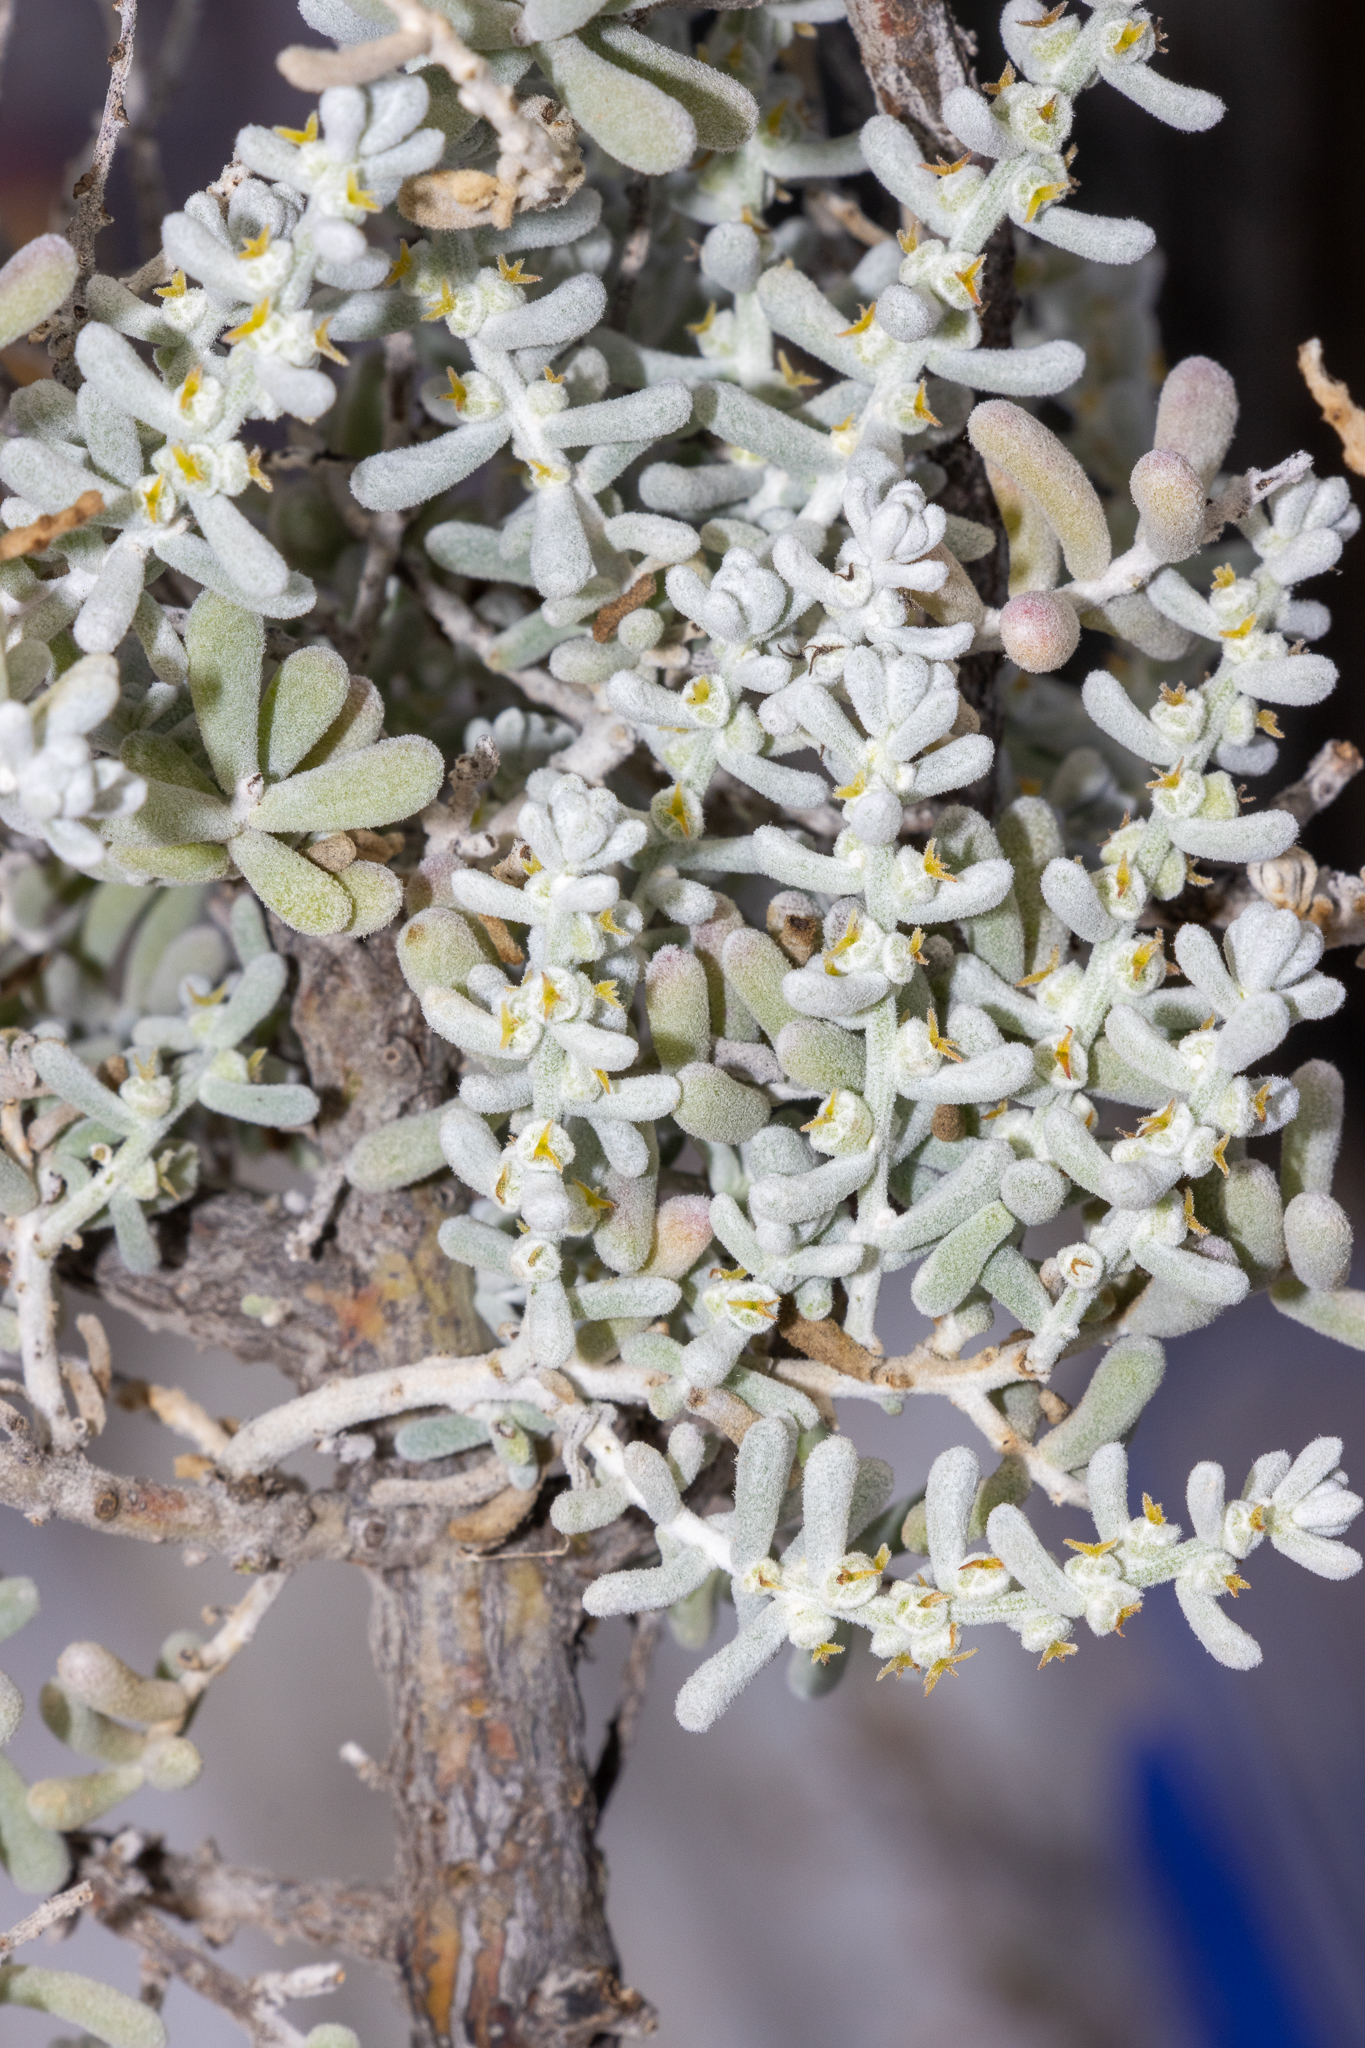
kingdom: Plantae
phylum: Tracheophyta
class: Magnoliopsida
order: Caryophyllales
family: Amaranthaceae
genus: Maireana
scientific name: Maireana sedifolia
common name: Hoary bluebush
